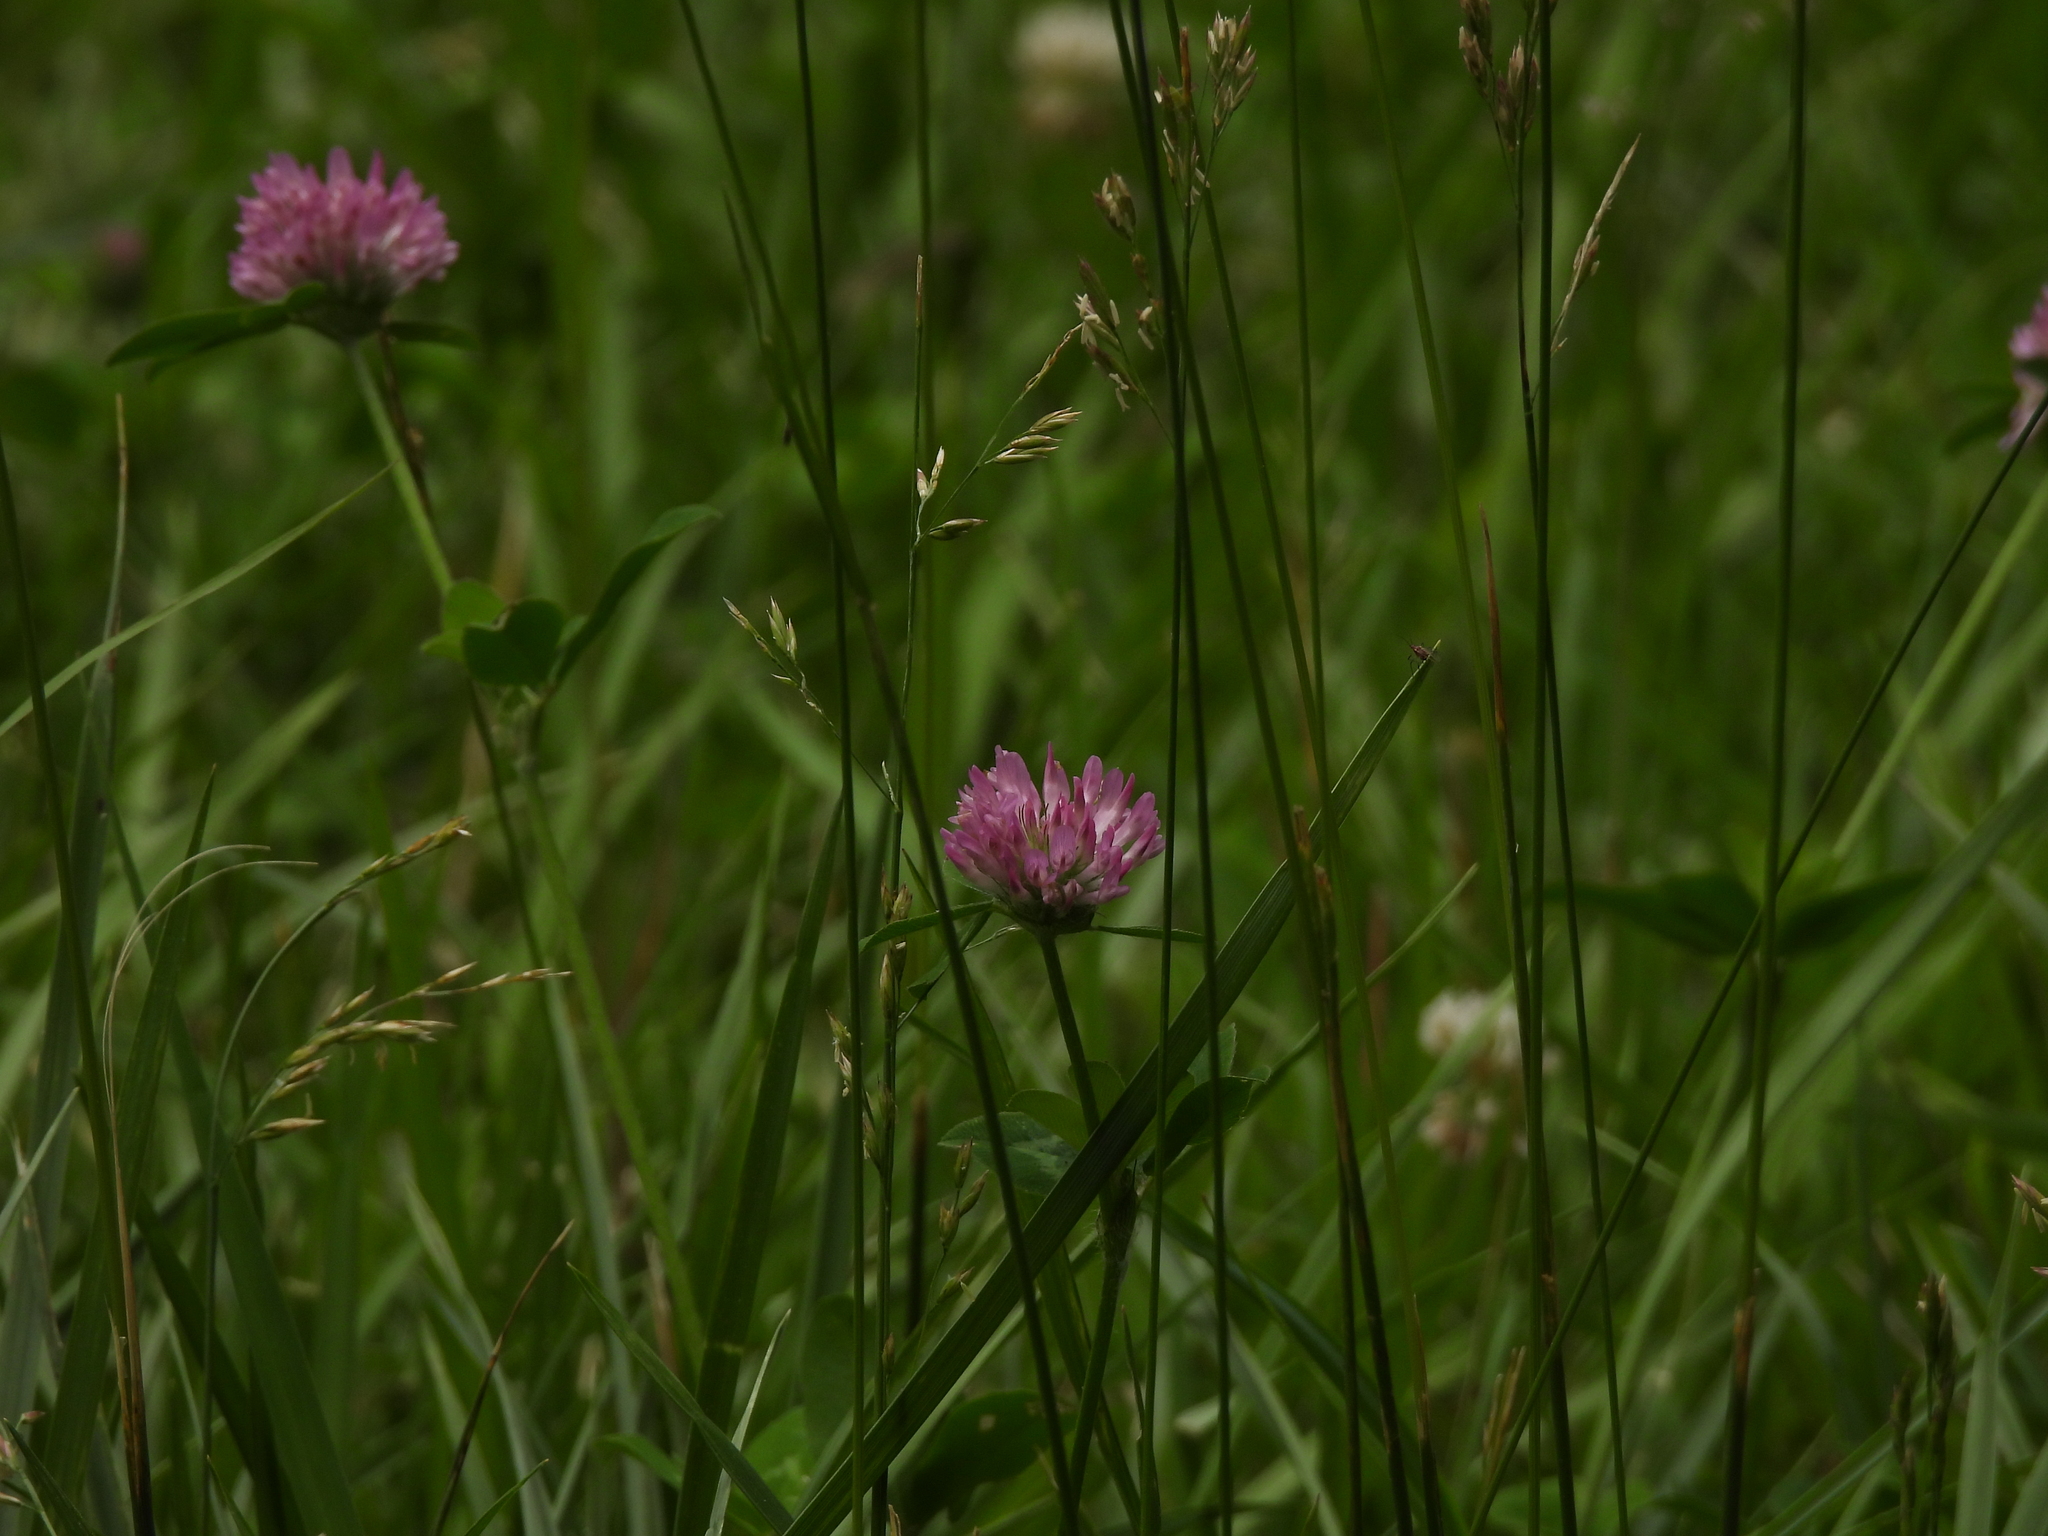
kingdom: Plantae
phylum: Tracheophyta
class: Magnoliopsida
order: Fabales
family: Fabaceae
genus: Trifolium
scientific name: Trifolium pratense
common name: Red clover
